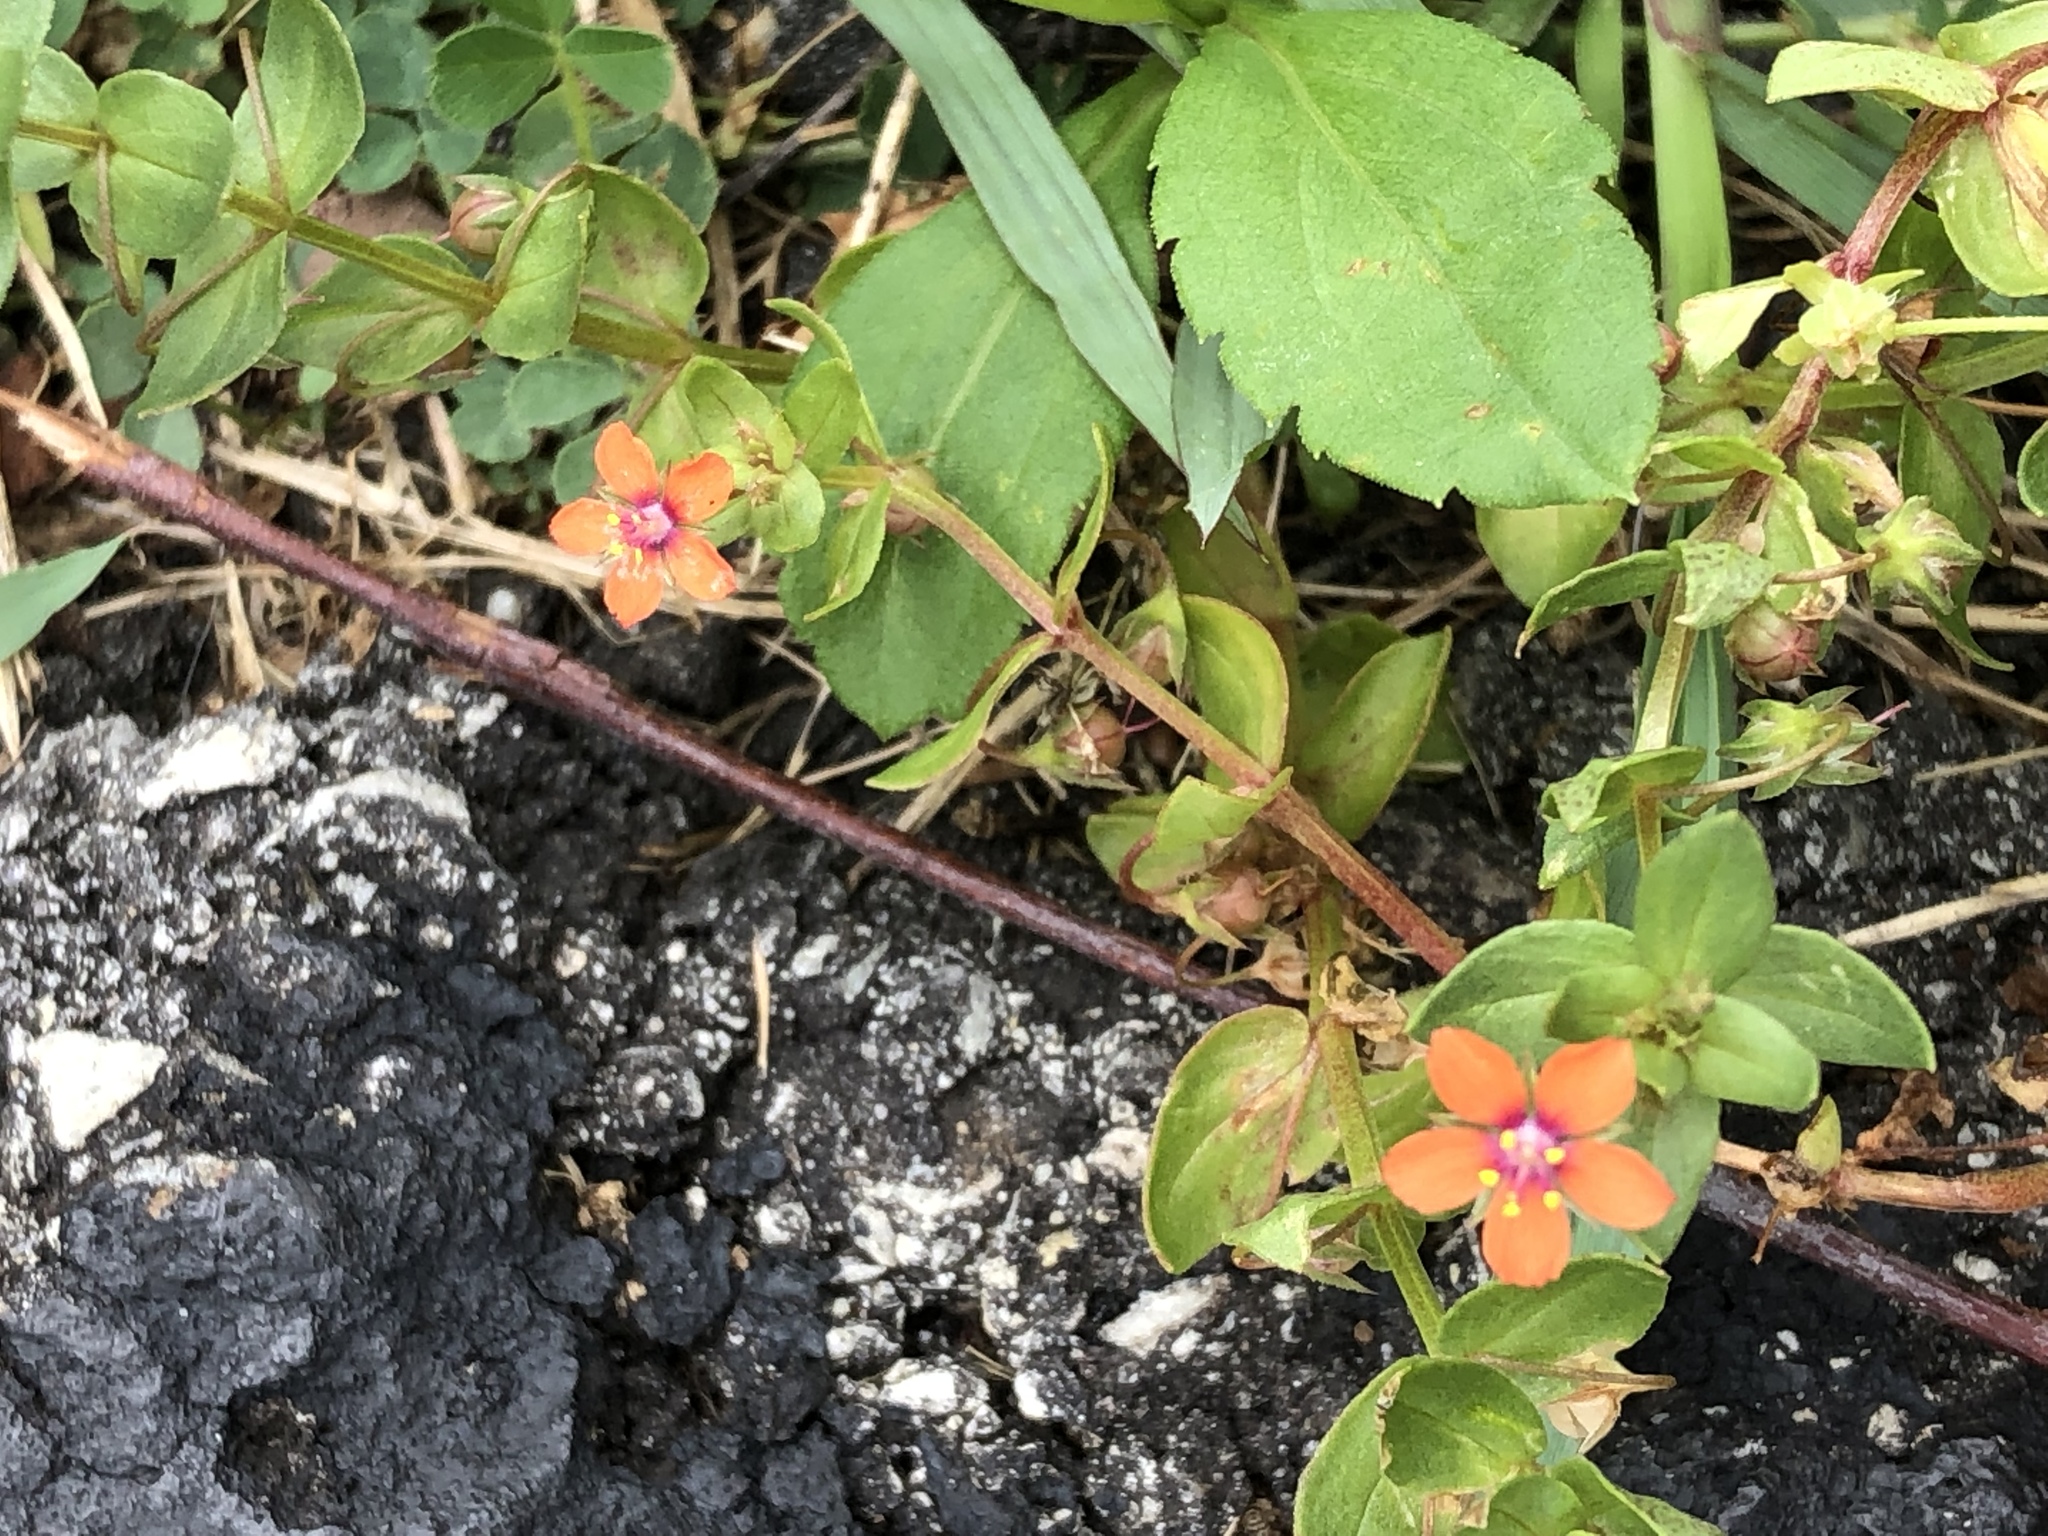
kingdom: Plantae
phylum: Tracheophyta
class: Magnoliopsida
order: Ericales
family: Primulaceae
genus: Lysimachia
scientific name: Lysimachia arvensis
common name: Scarlet pimpernel
